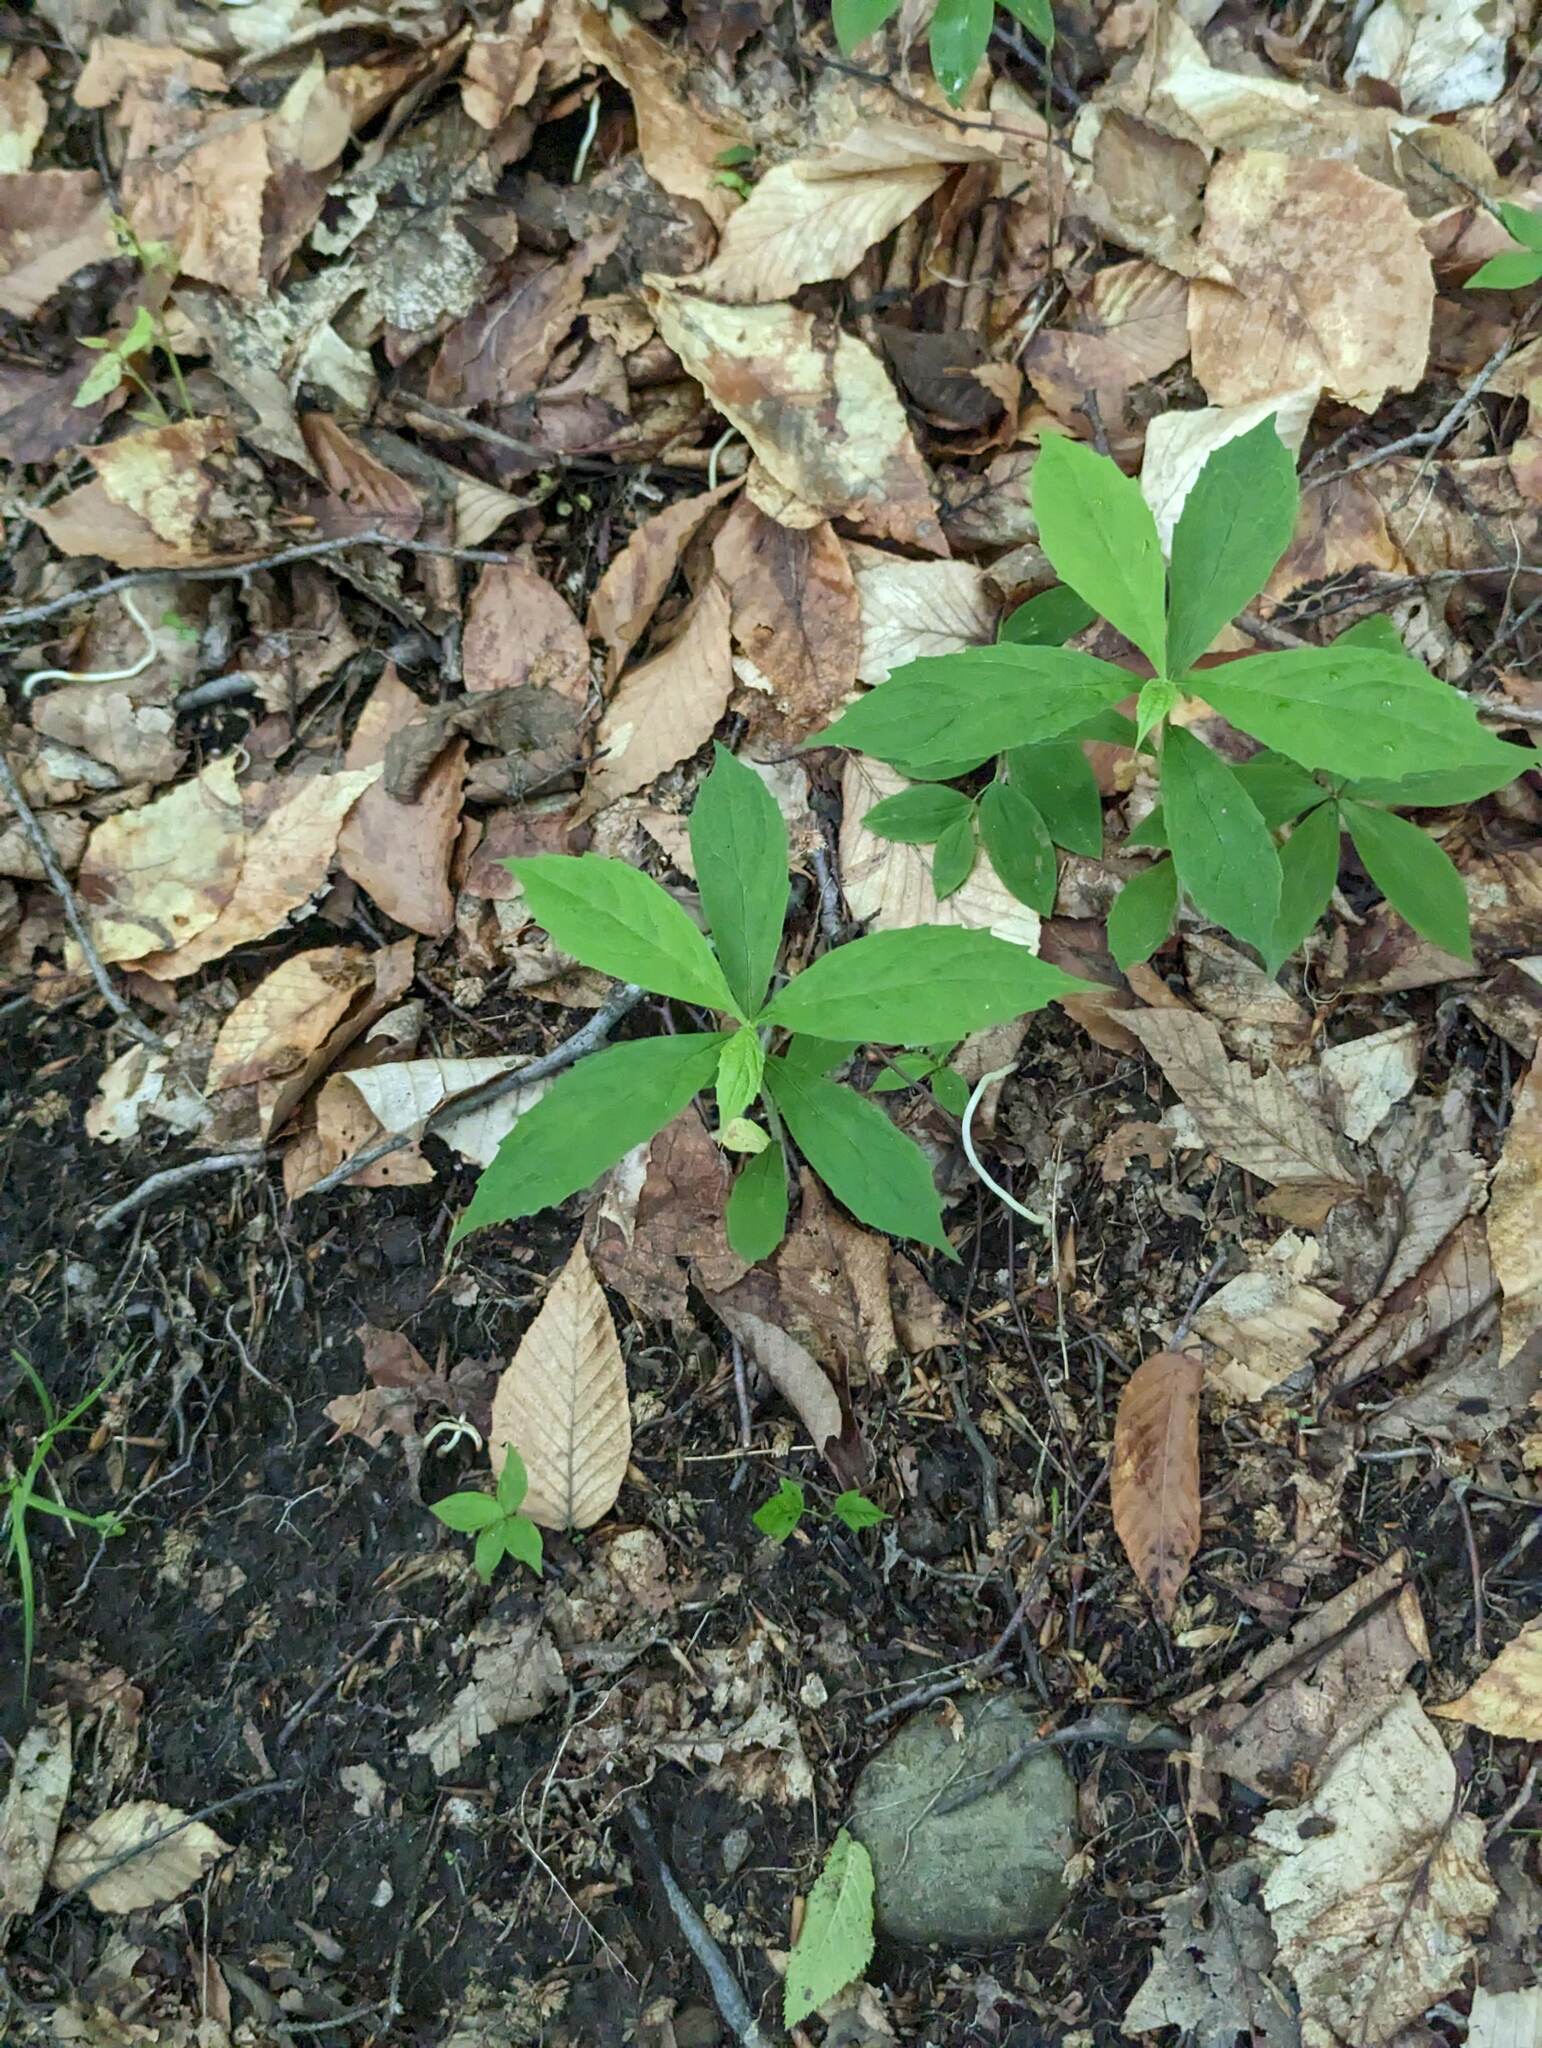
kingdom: Plantae
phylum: Tracheophyta
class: Magnoliopsida
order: Asterales
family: Asteraceae
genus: Oclemena
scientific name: Oclemena acuminata
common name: Mountain aster
